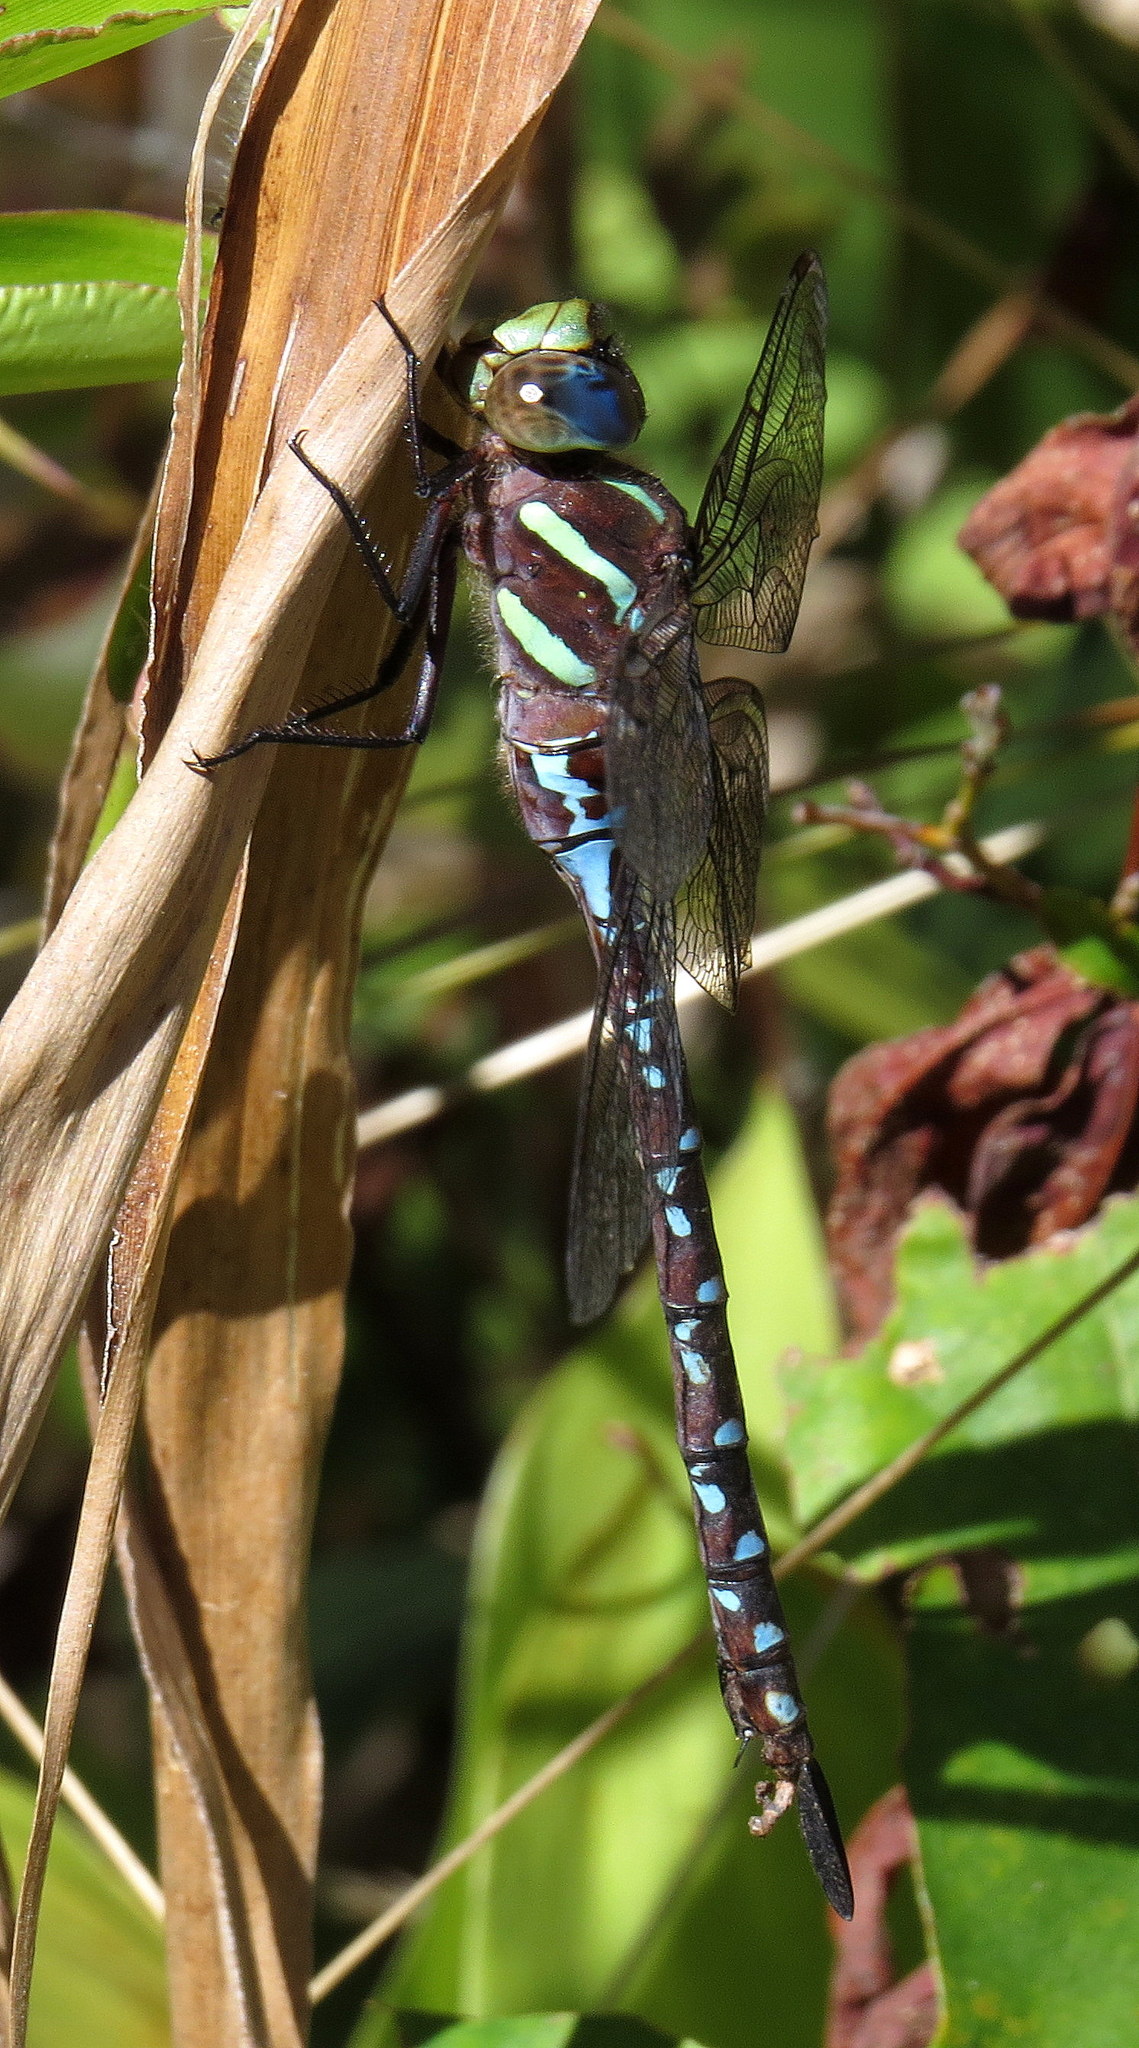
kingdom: Animalia
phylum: Arthropoda
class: Insecta
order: Odonata
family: Aeshnidae
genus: Aeshna
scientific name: Aeshna tuberculifera
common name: Aeschne à tubercules
